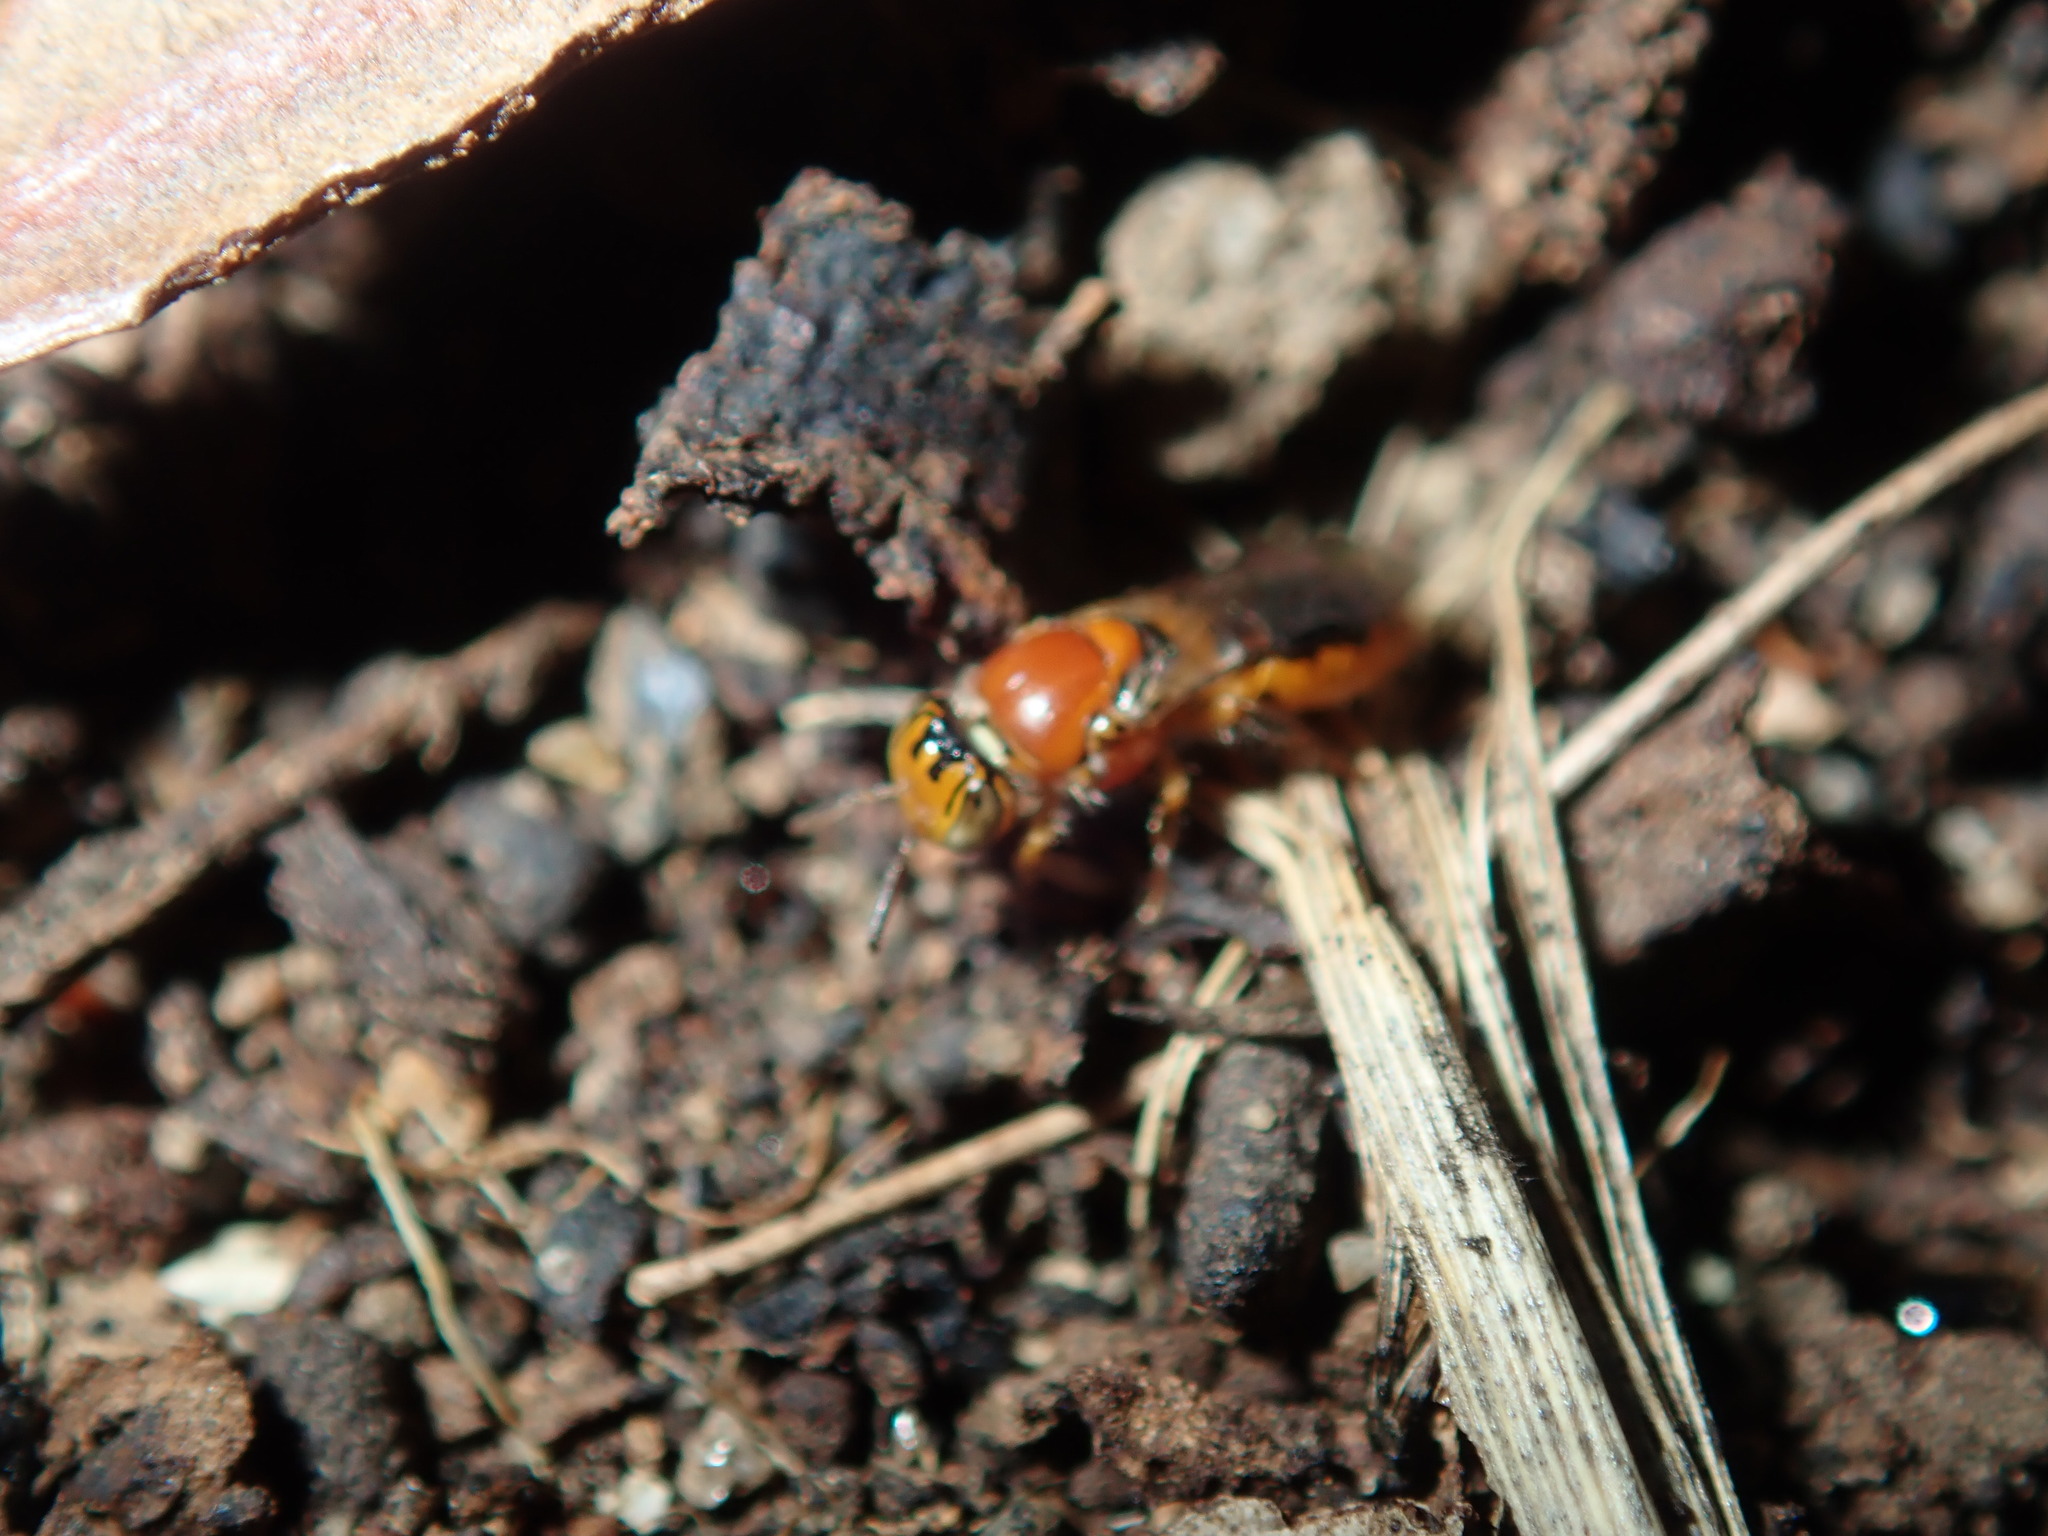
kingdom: Animalia
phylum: Arthropoda
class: Insecta
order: Hymenoptera
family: Colletidae
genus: Pachyprosopis
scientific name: Pachyprosopis kellyi
